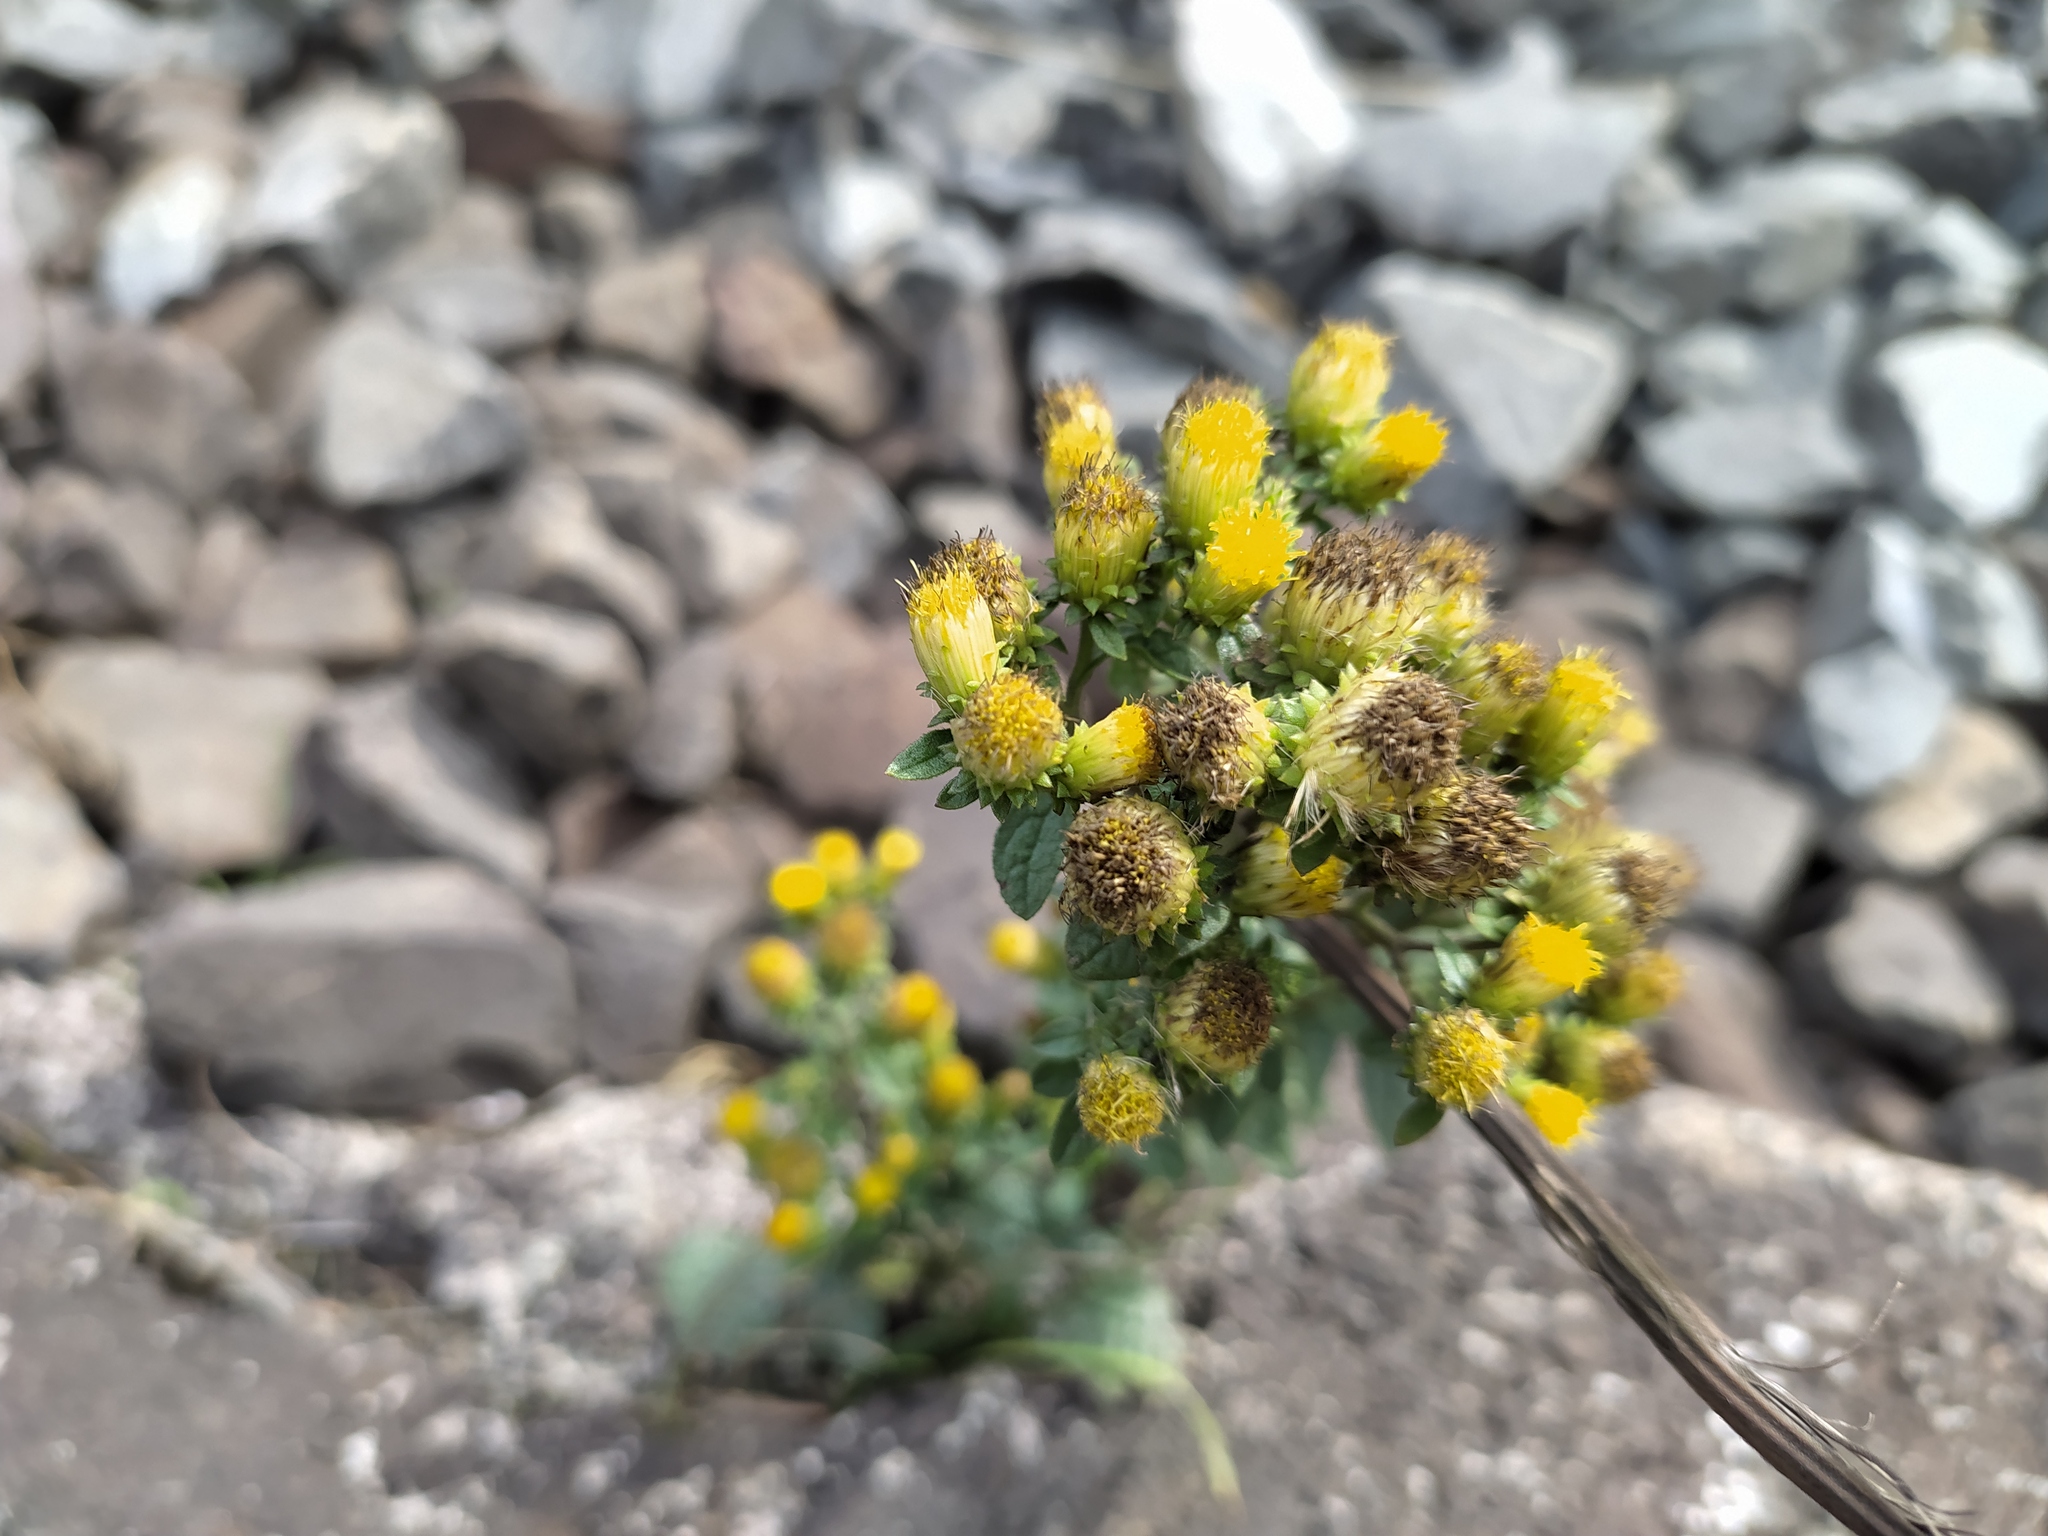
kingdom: Plantae
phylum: Tracheophyta
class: Magnoliopsida
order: Asterales
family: Asteraceae
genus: Pentanema
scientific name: Pentanema squarrosum
